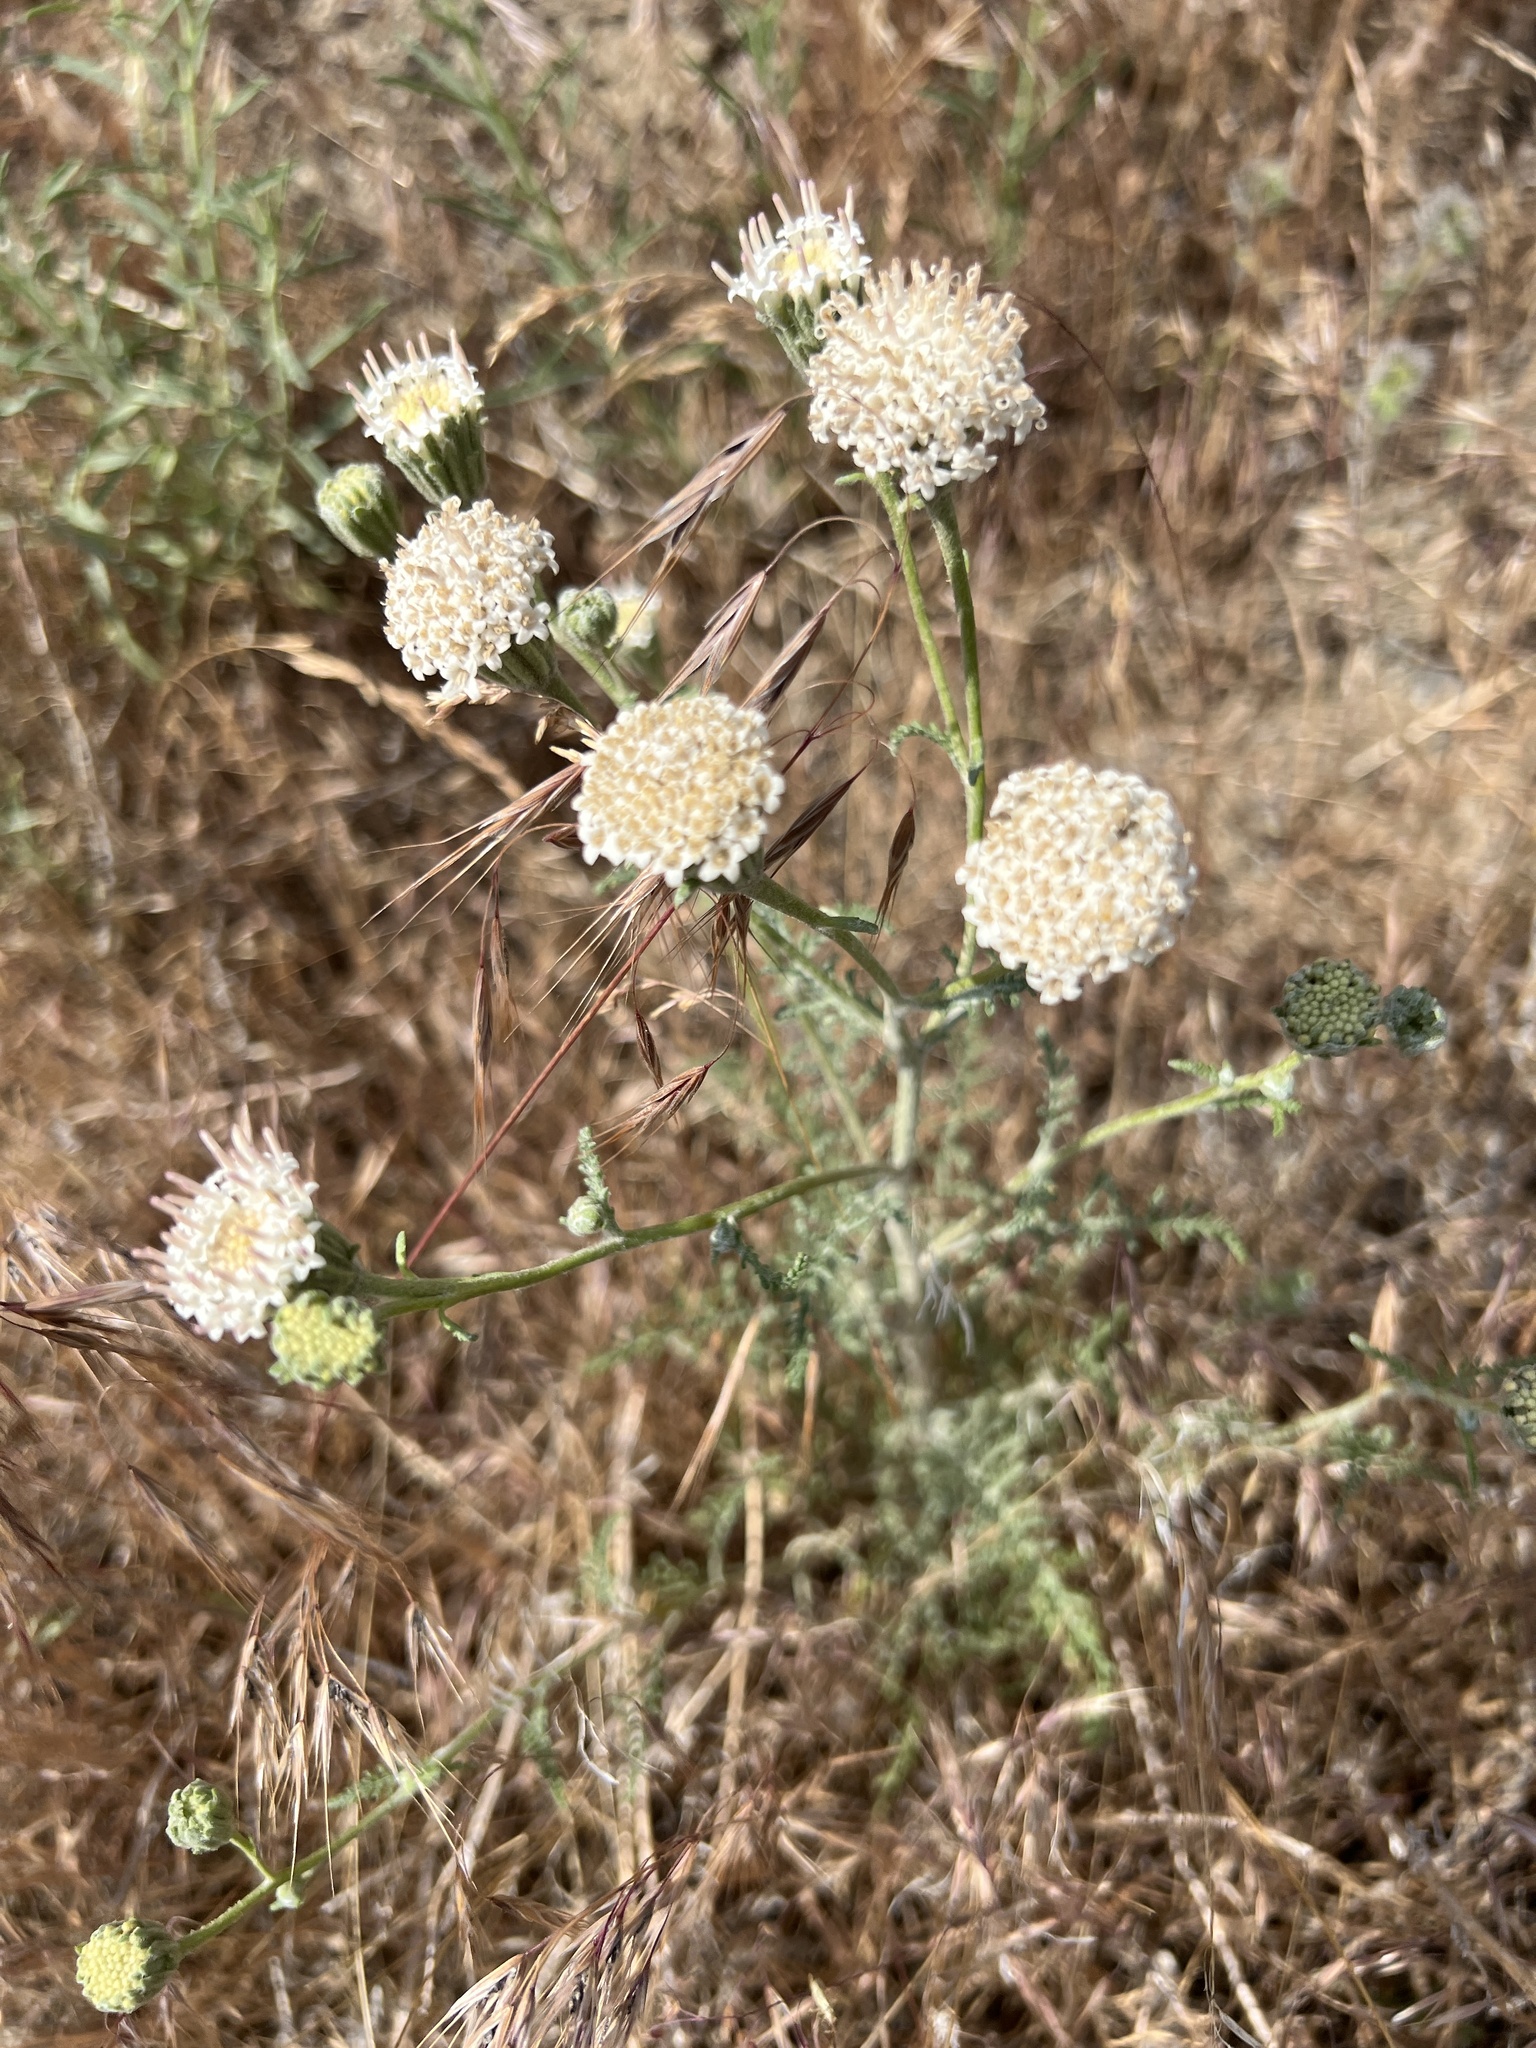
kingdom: Plantae
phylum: Tracheophyta
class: Magnoliopsida
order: Asterales
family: Asteraceae
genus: Chaenactis
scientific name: Chaenactis douglasii
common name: Hoary pincushion
